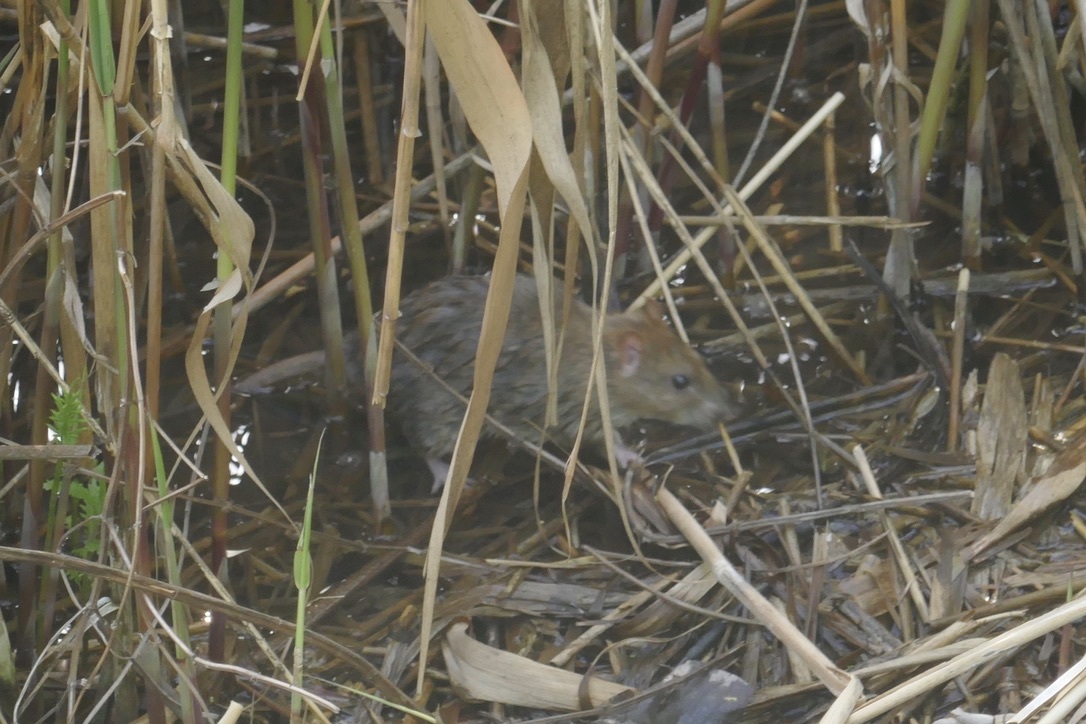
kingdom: Animalia
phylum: Chordata
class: Mammalia
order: Rodentia
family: Muridae
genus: Rattus
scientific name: Rattus norvegicus
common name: Brown rat
